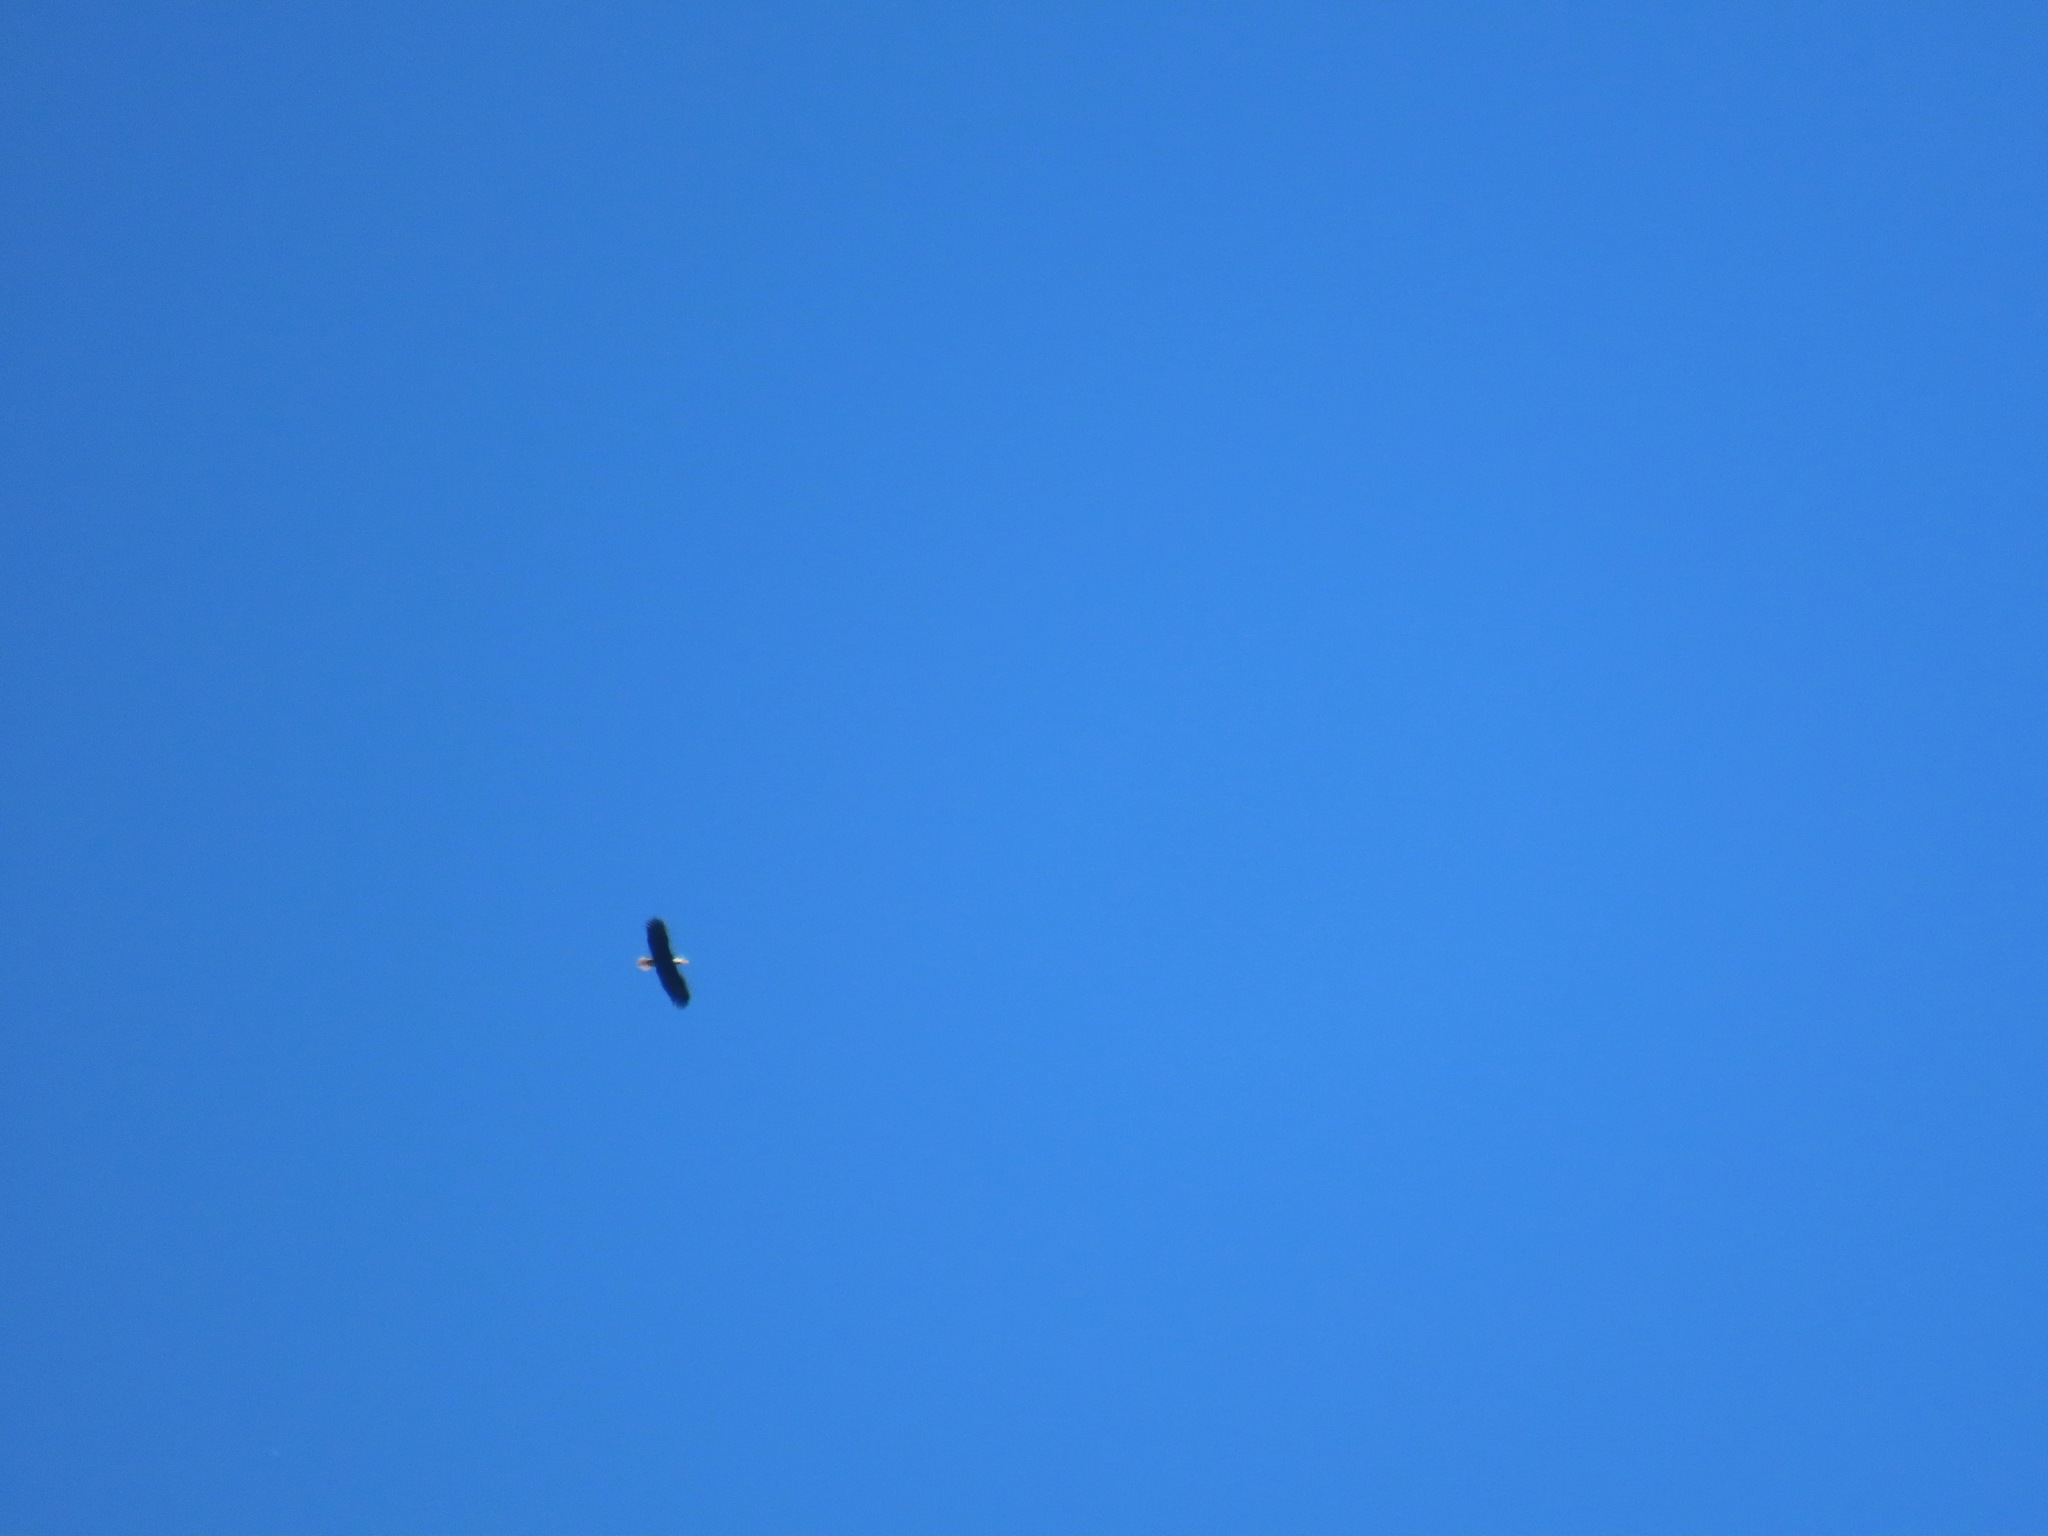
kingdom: Animalia
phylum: Chordata
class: Aves
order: Accipitriformes
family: Accipitridae
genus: Haliaeetus
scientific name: Haliaeetus leucocephalus
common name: Bald eagle
